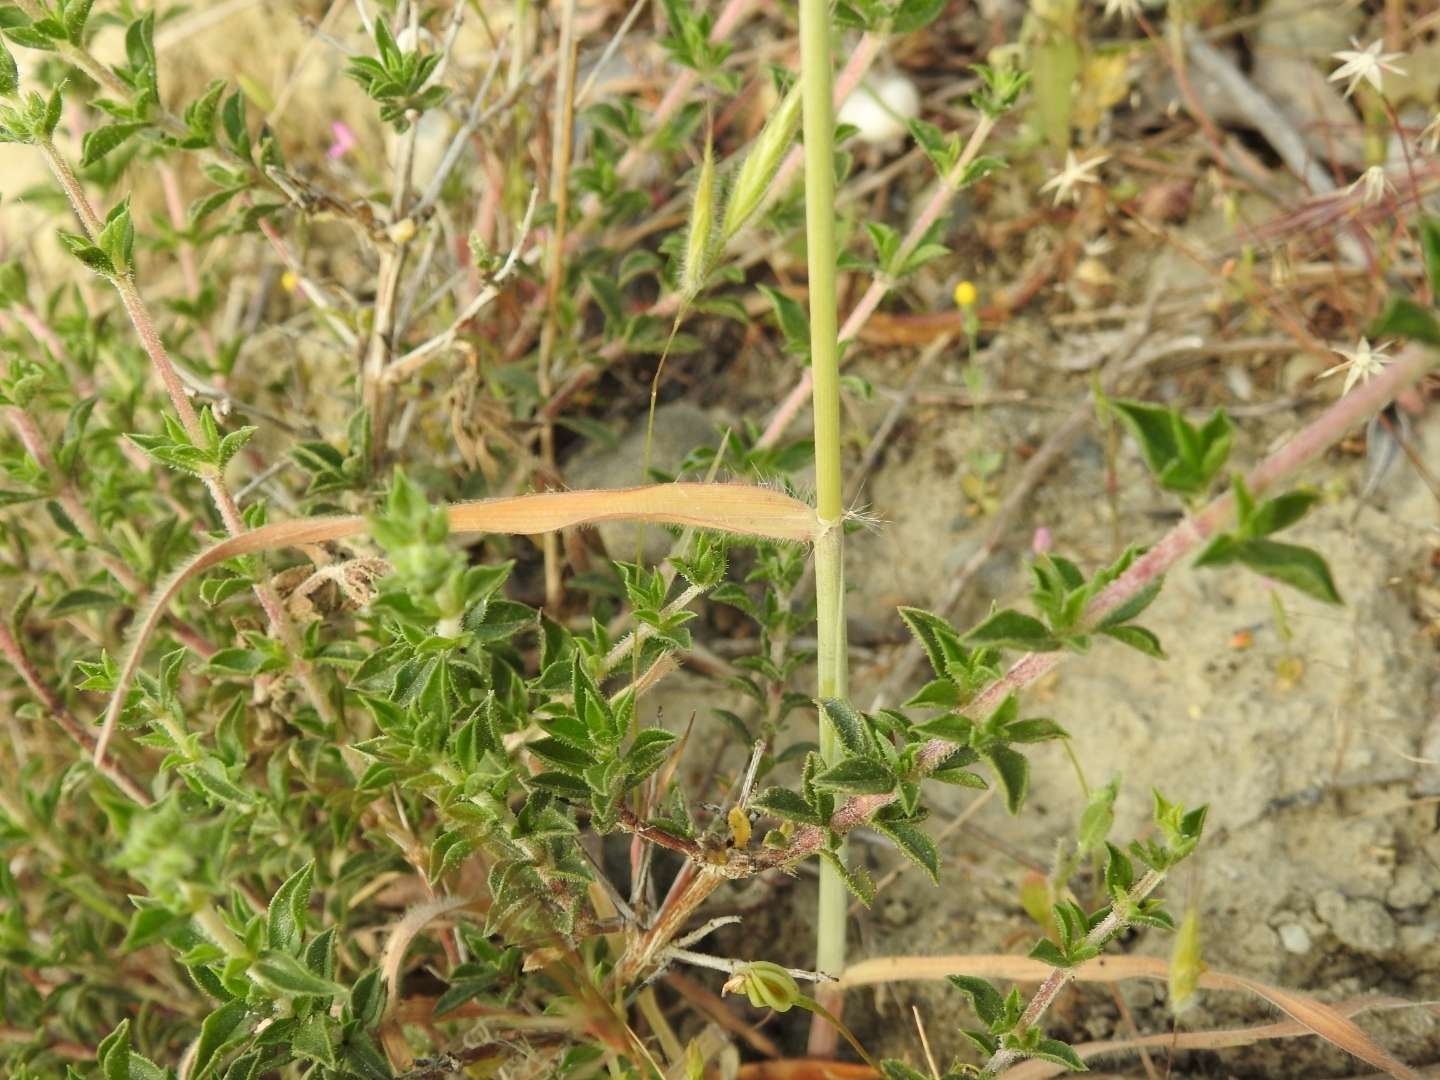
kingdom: Plantae
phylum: Tracheophyta
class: Liliopsida
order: Poales
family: Poaceae
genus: Dasypyrum
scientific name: Dasypyrum villosum
